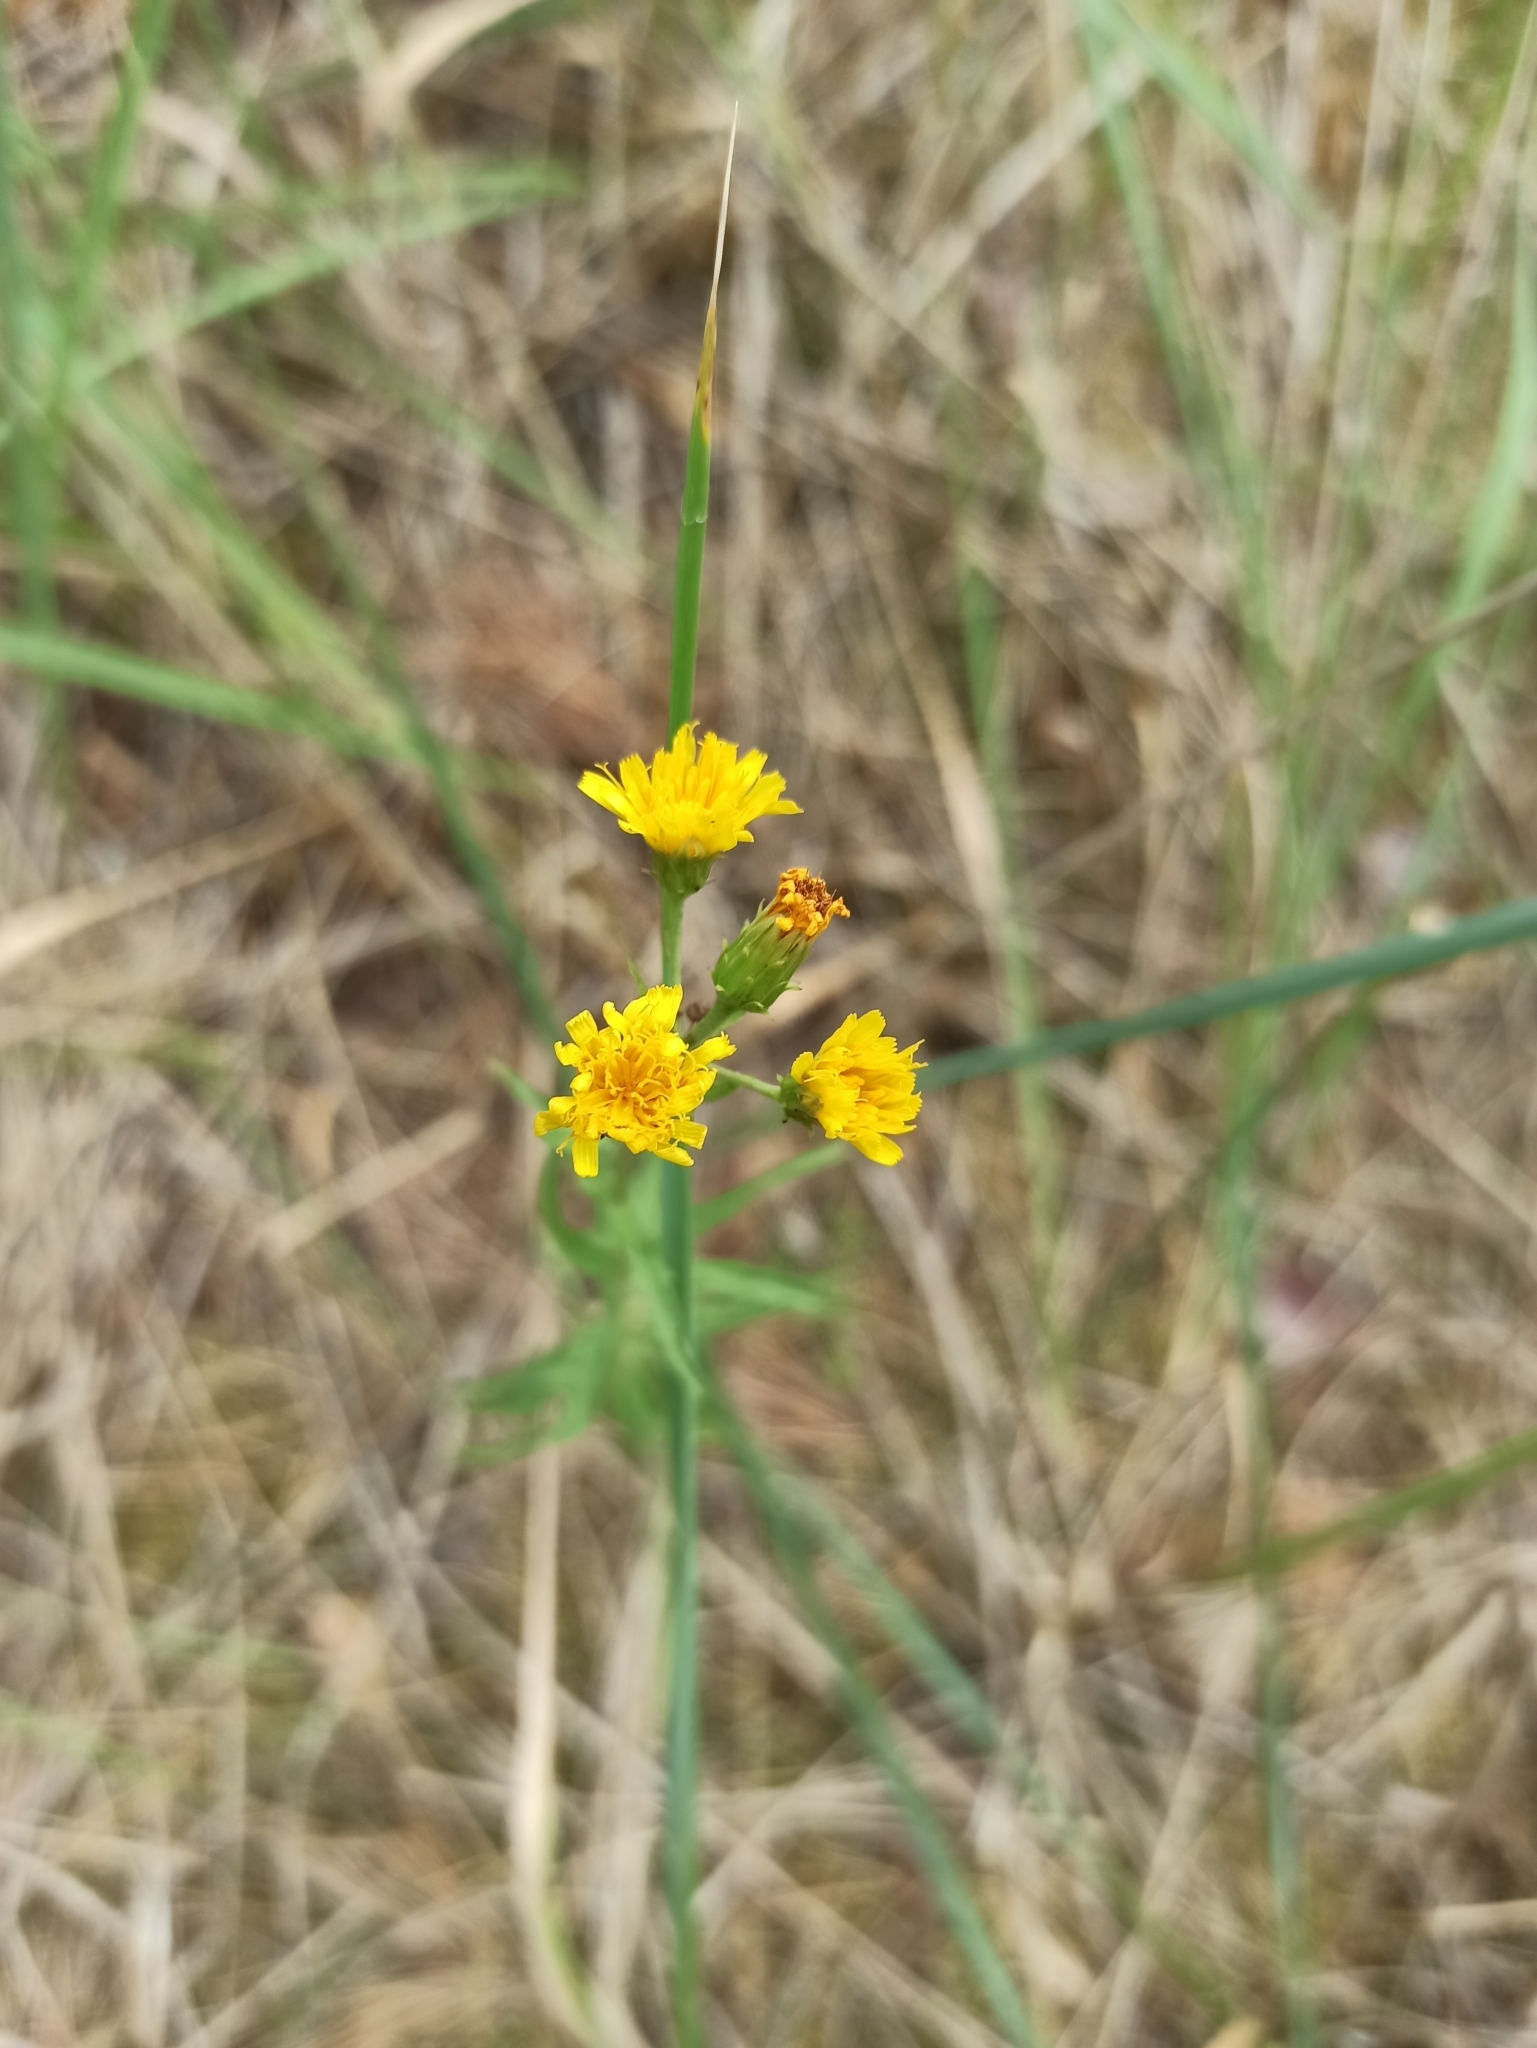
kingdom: Plantae
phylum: Tracheophyta
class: Magnoliopsida
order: Asterales
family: Asteraceae
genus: Hieracium
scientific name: Hieracium umbellatum
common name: Northern hawkweed
